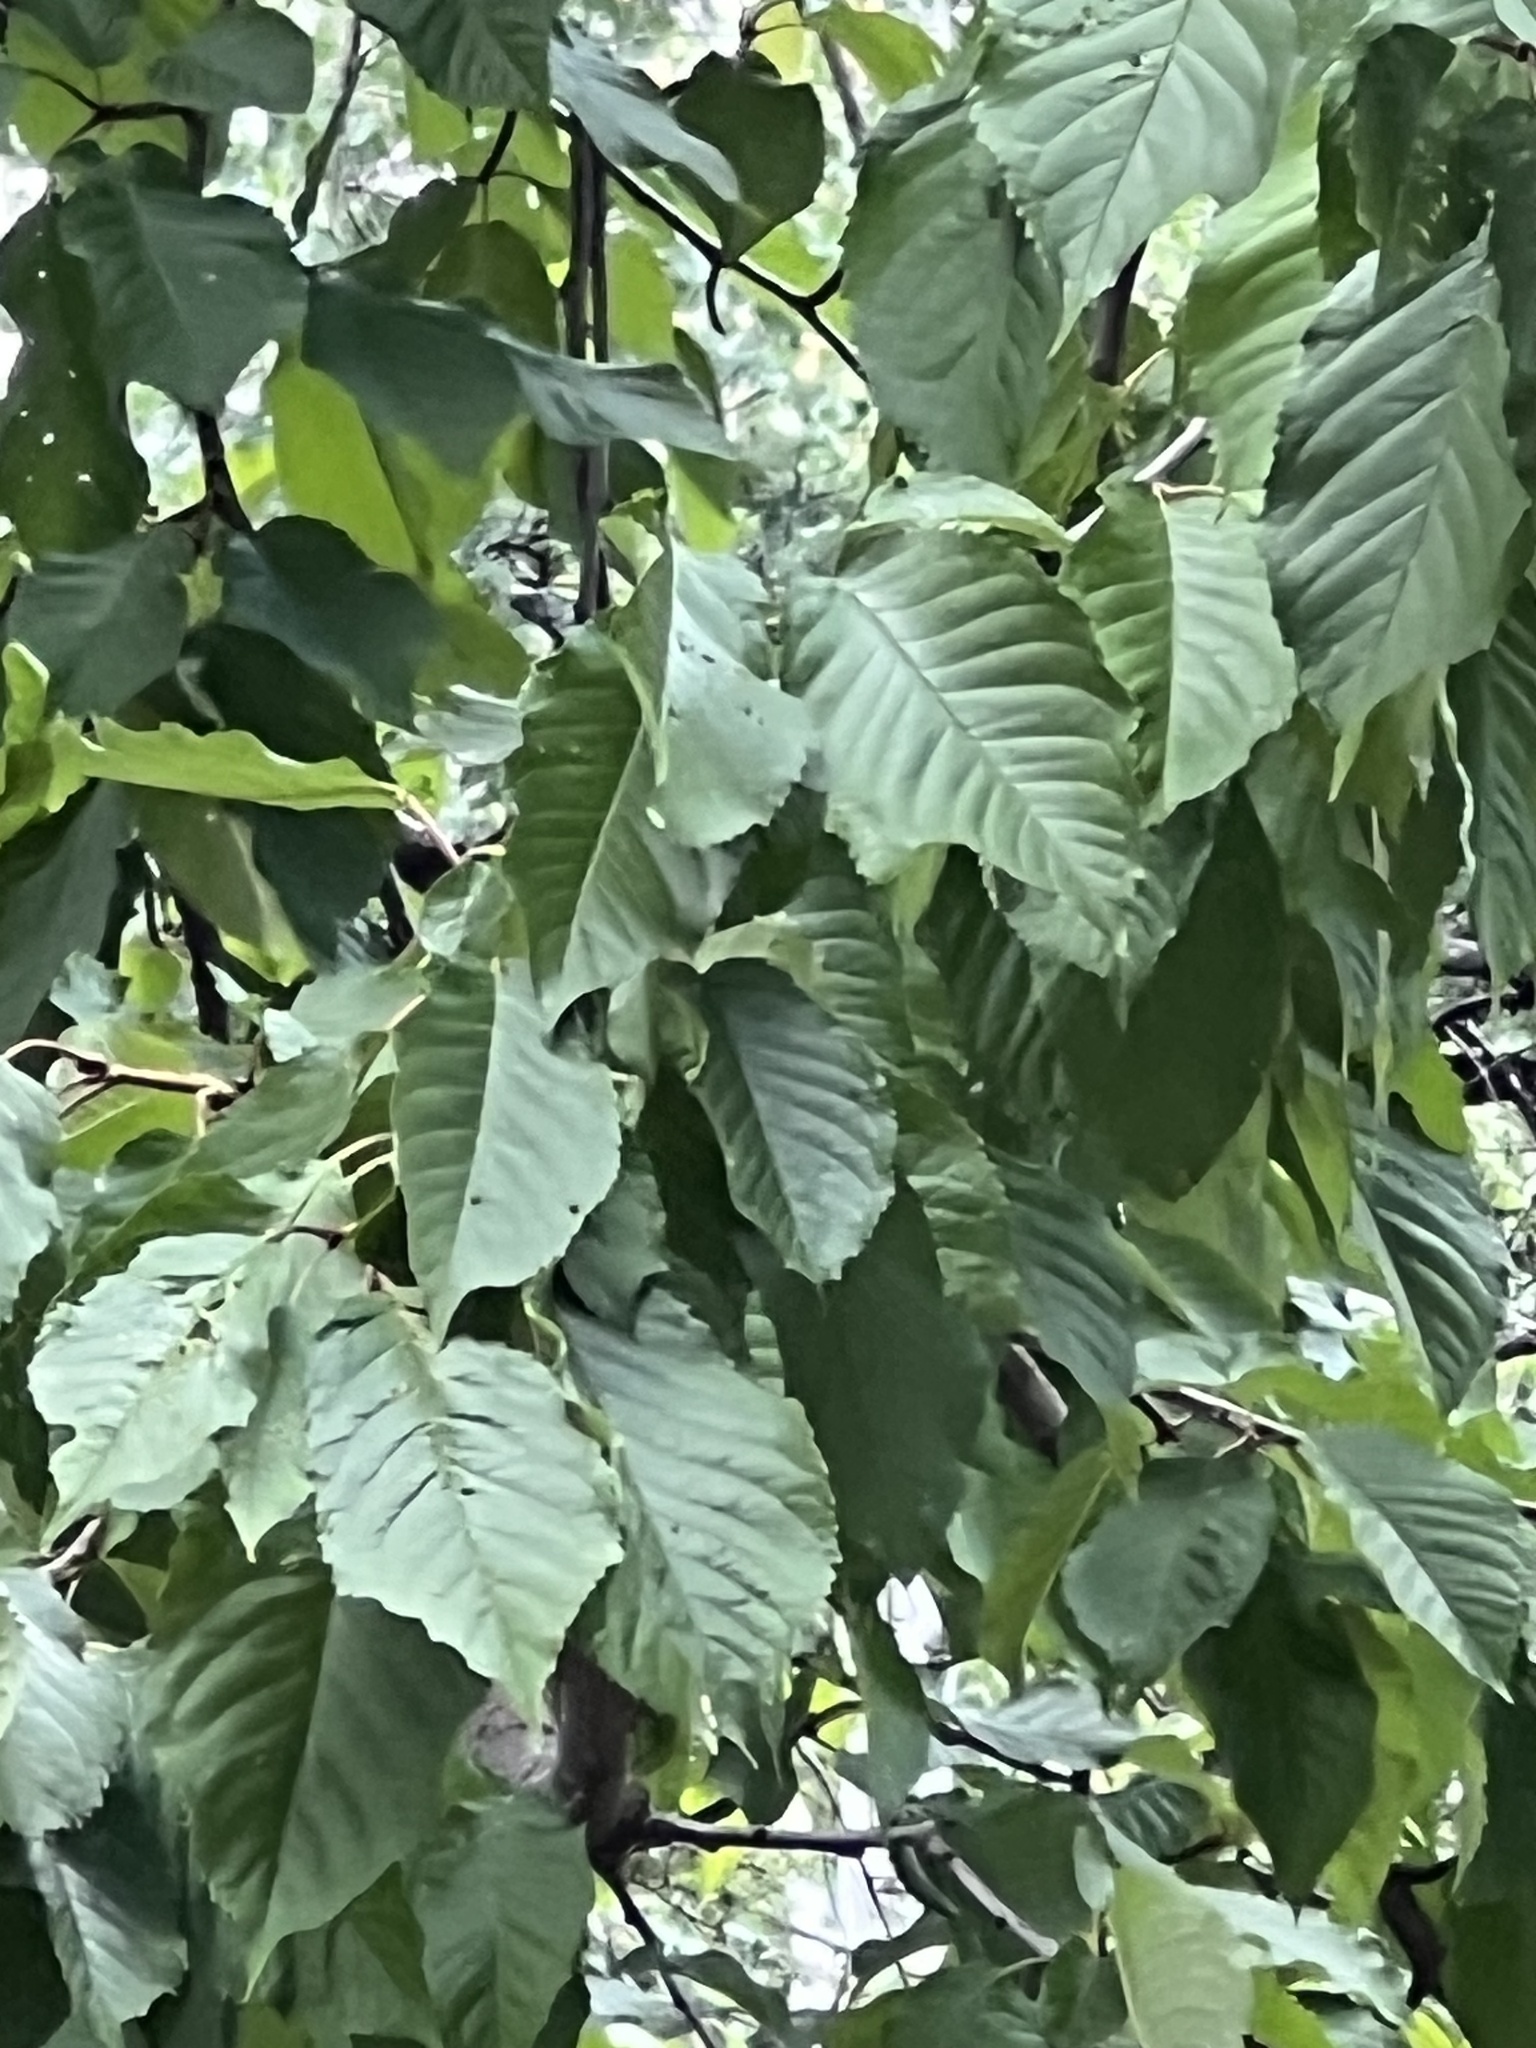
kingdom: Plantae
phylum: Tracheophyta
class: Magnoliopsida
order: Rosales
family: Rosaceae
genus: Prunus
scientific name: Prunus avium
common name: Sweet cherry
